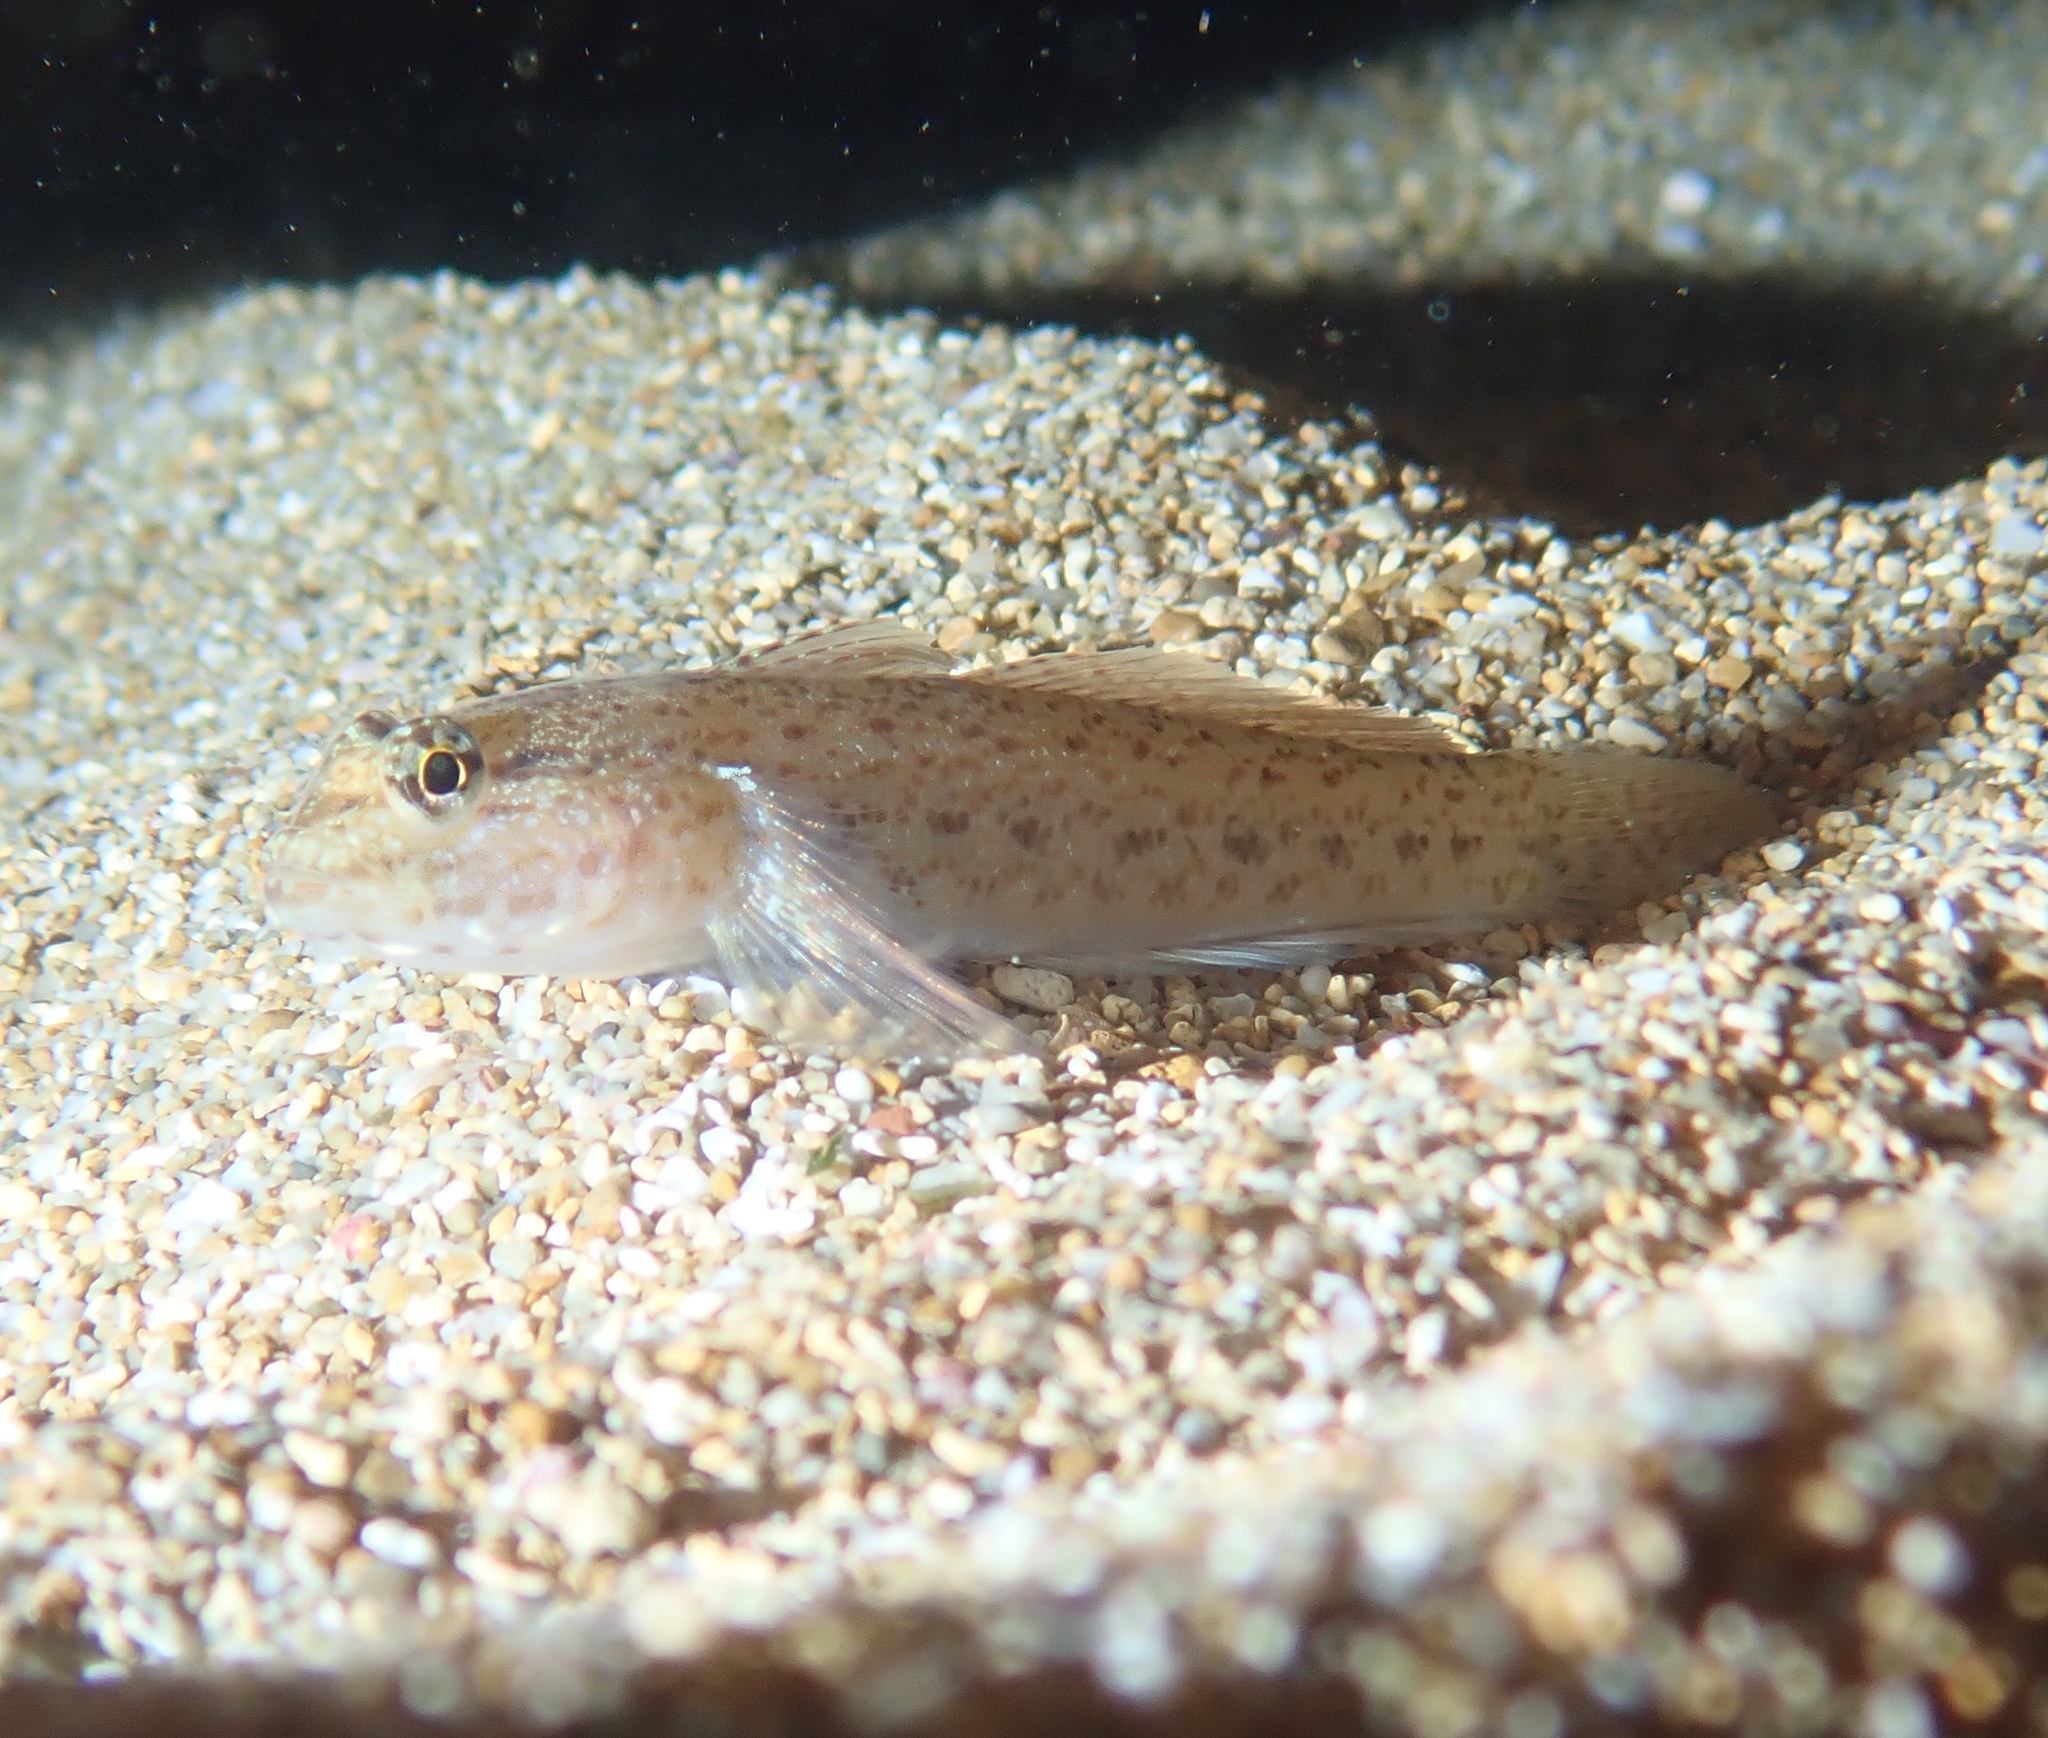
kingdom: Animalia
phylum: Chordata
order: Perciformes
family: Gobiidae
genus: Gobius
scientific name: Gobius incognitus
